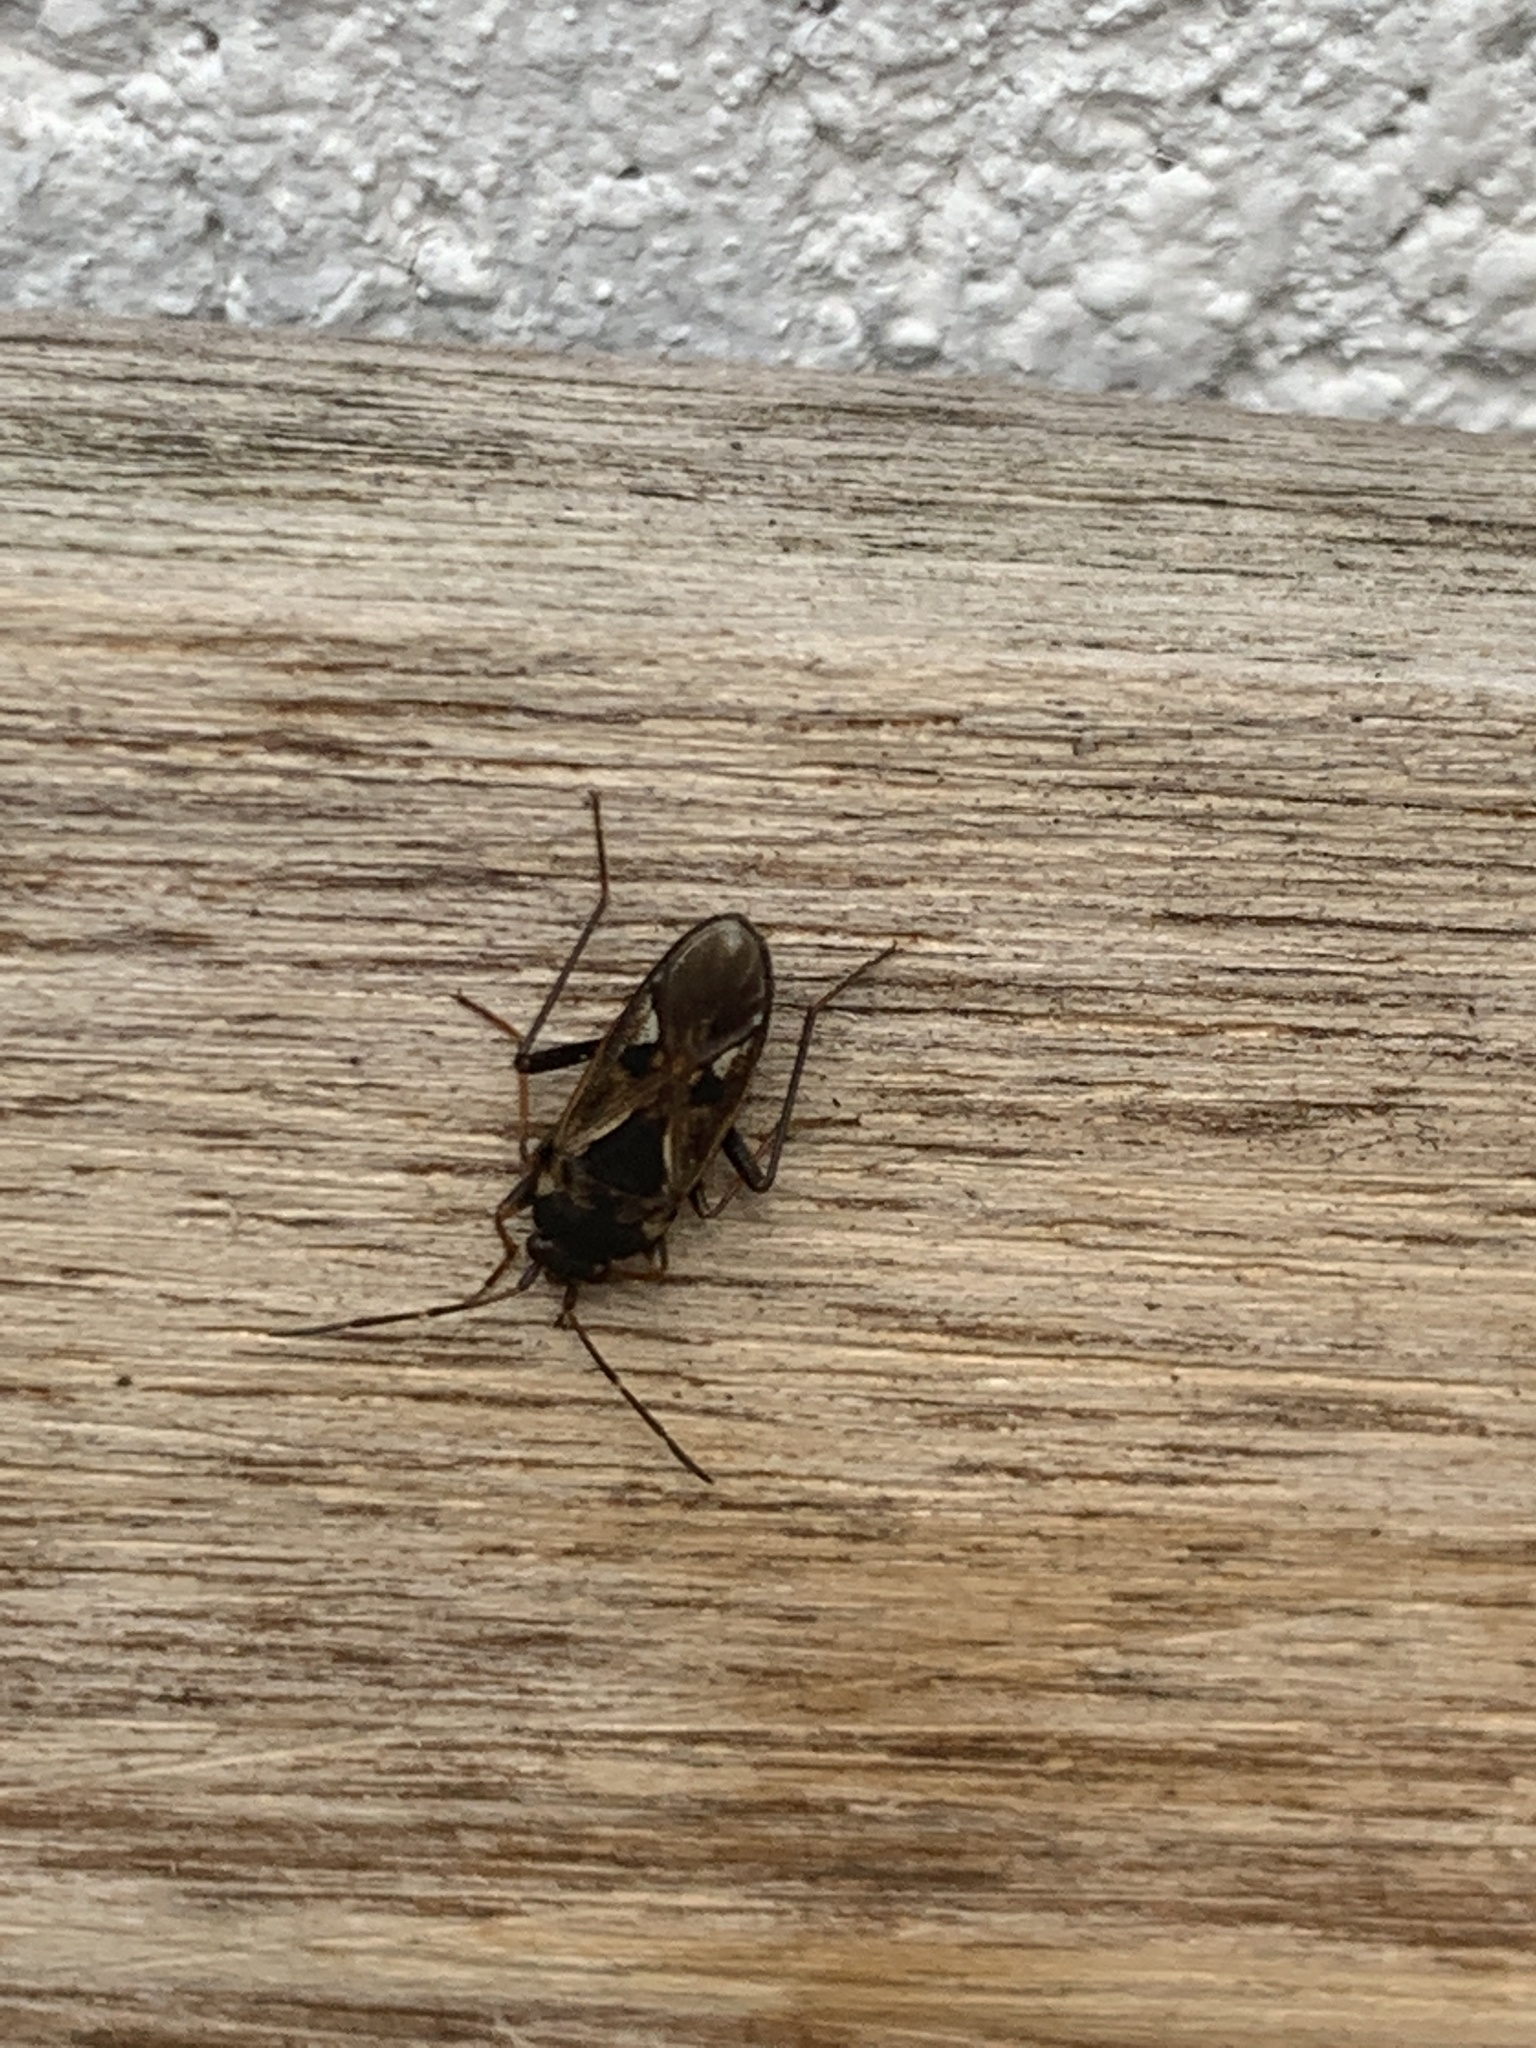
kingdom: Animalia
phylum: Arthropoda
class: Insecta
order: Hemiptera
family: Rhyparochromidae
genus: Rhyparochromus
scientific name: Rhyparochromus vulgaris
